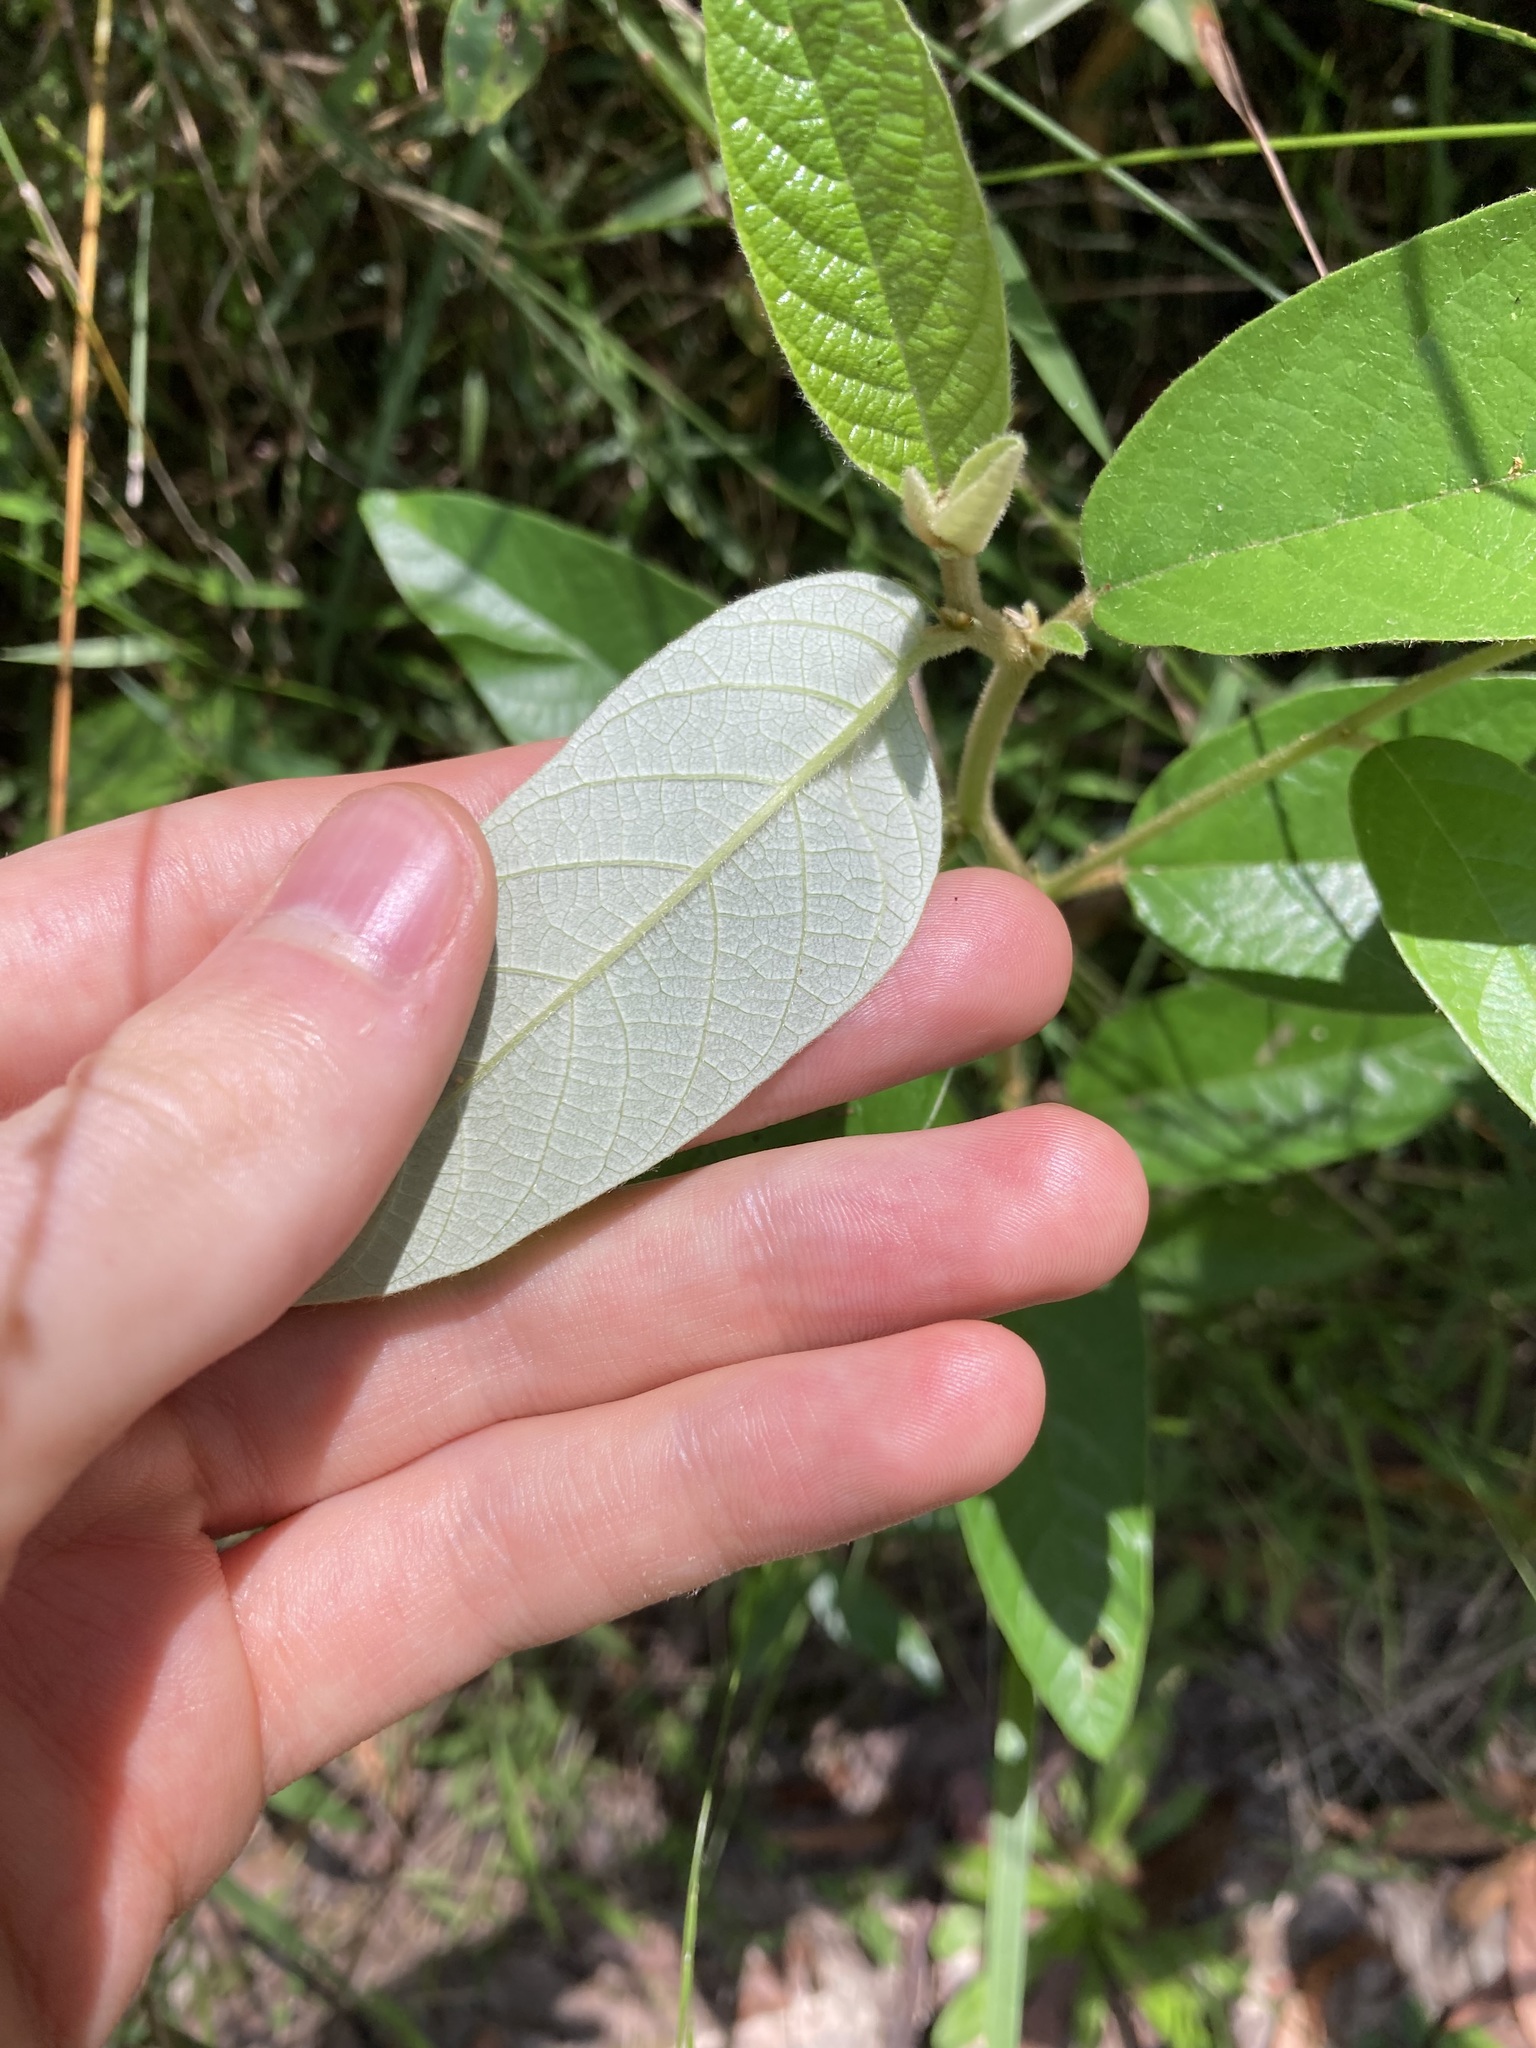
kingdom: Plantae
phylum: Tracheophyta
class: Magnoliopsida
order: Rosales
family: Rhamnaceae
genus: Alphitonia
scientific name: Alphitonia excelsa
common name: Red ash
